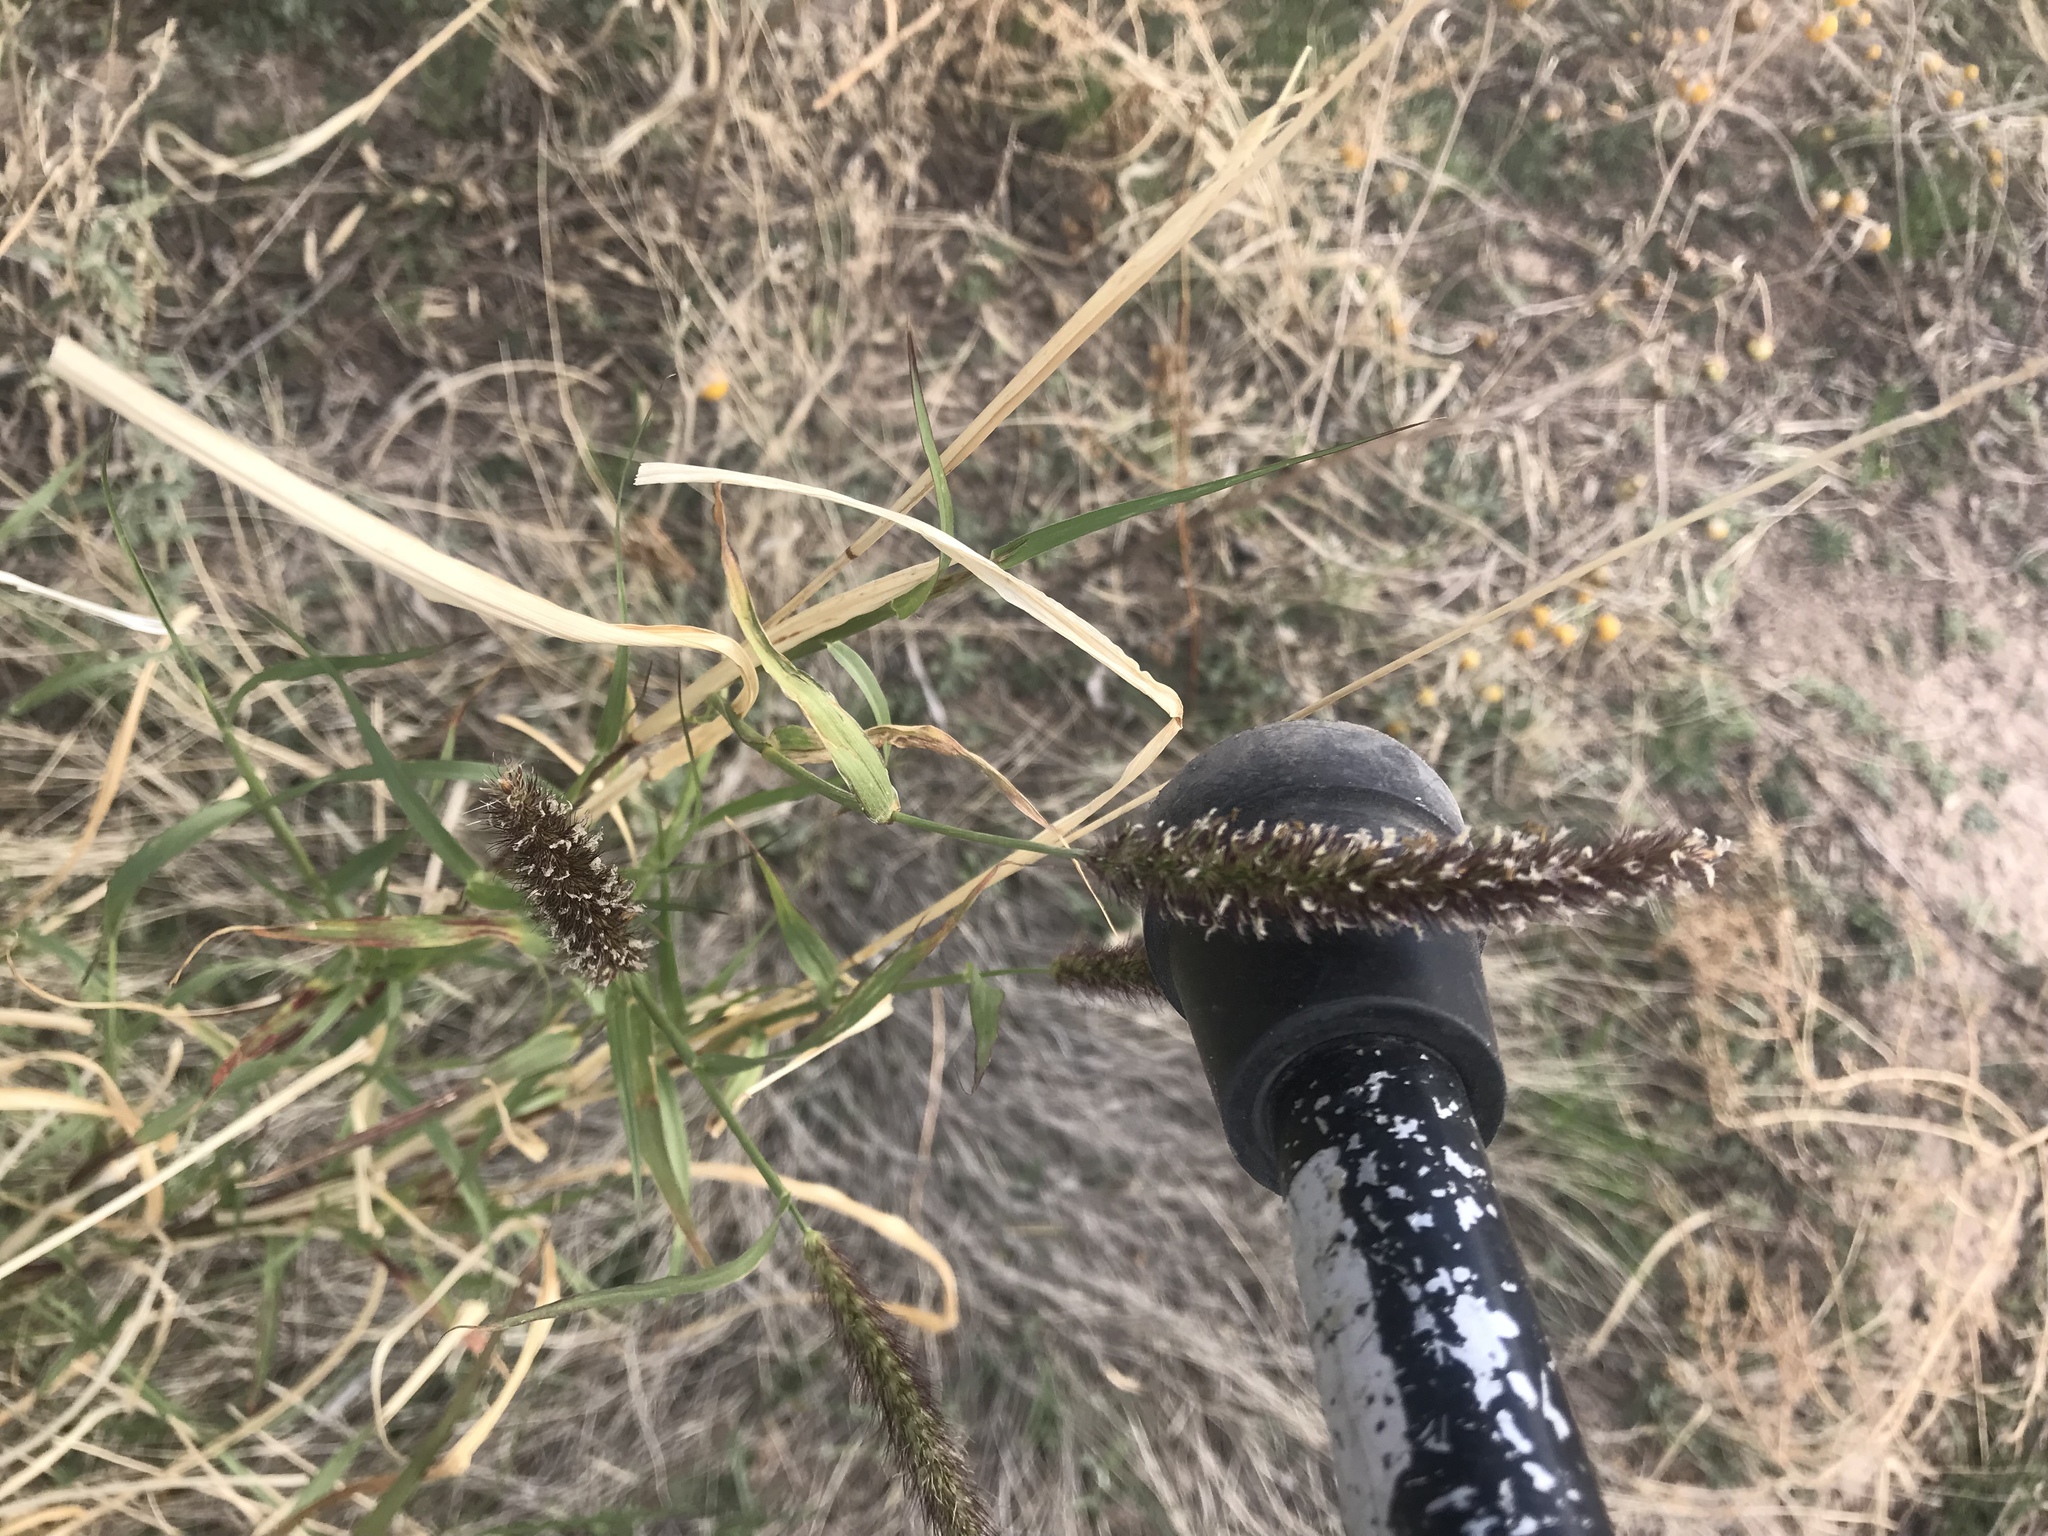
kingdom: Plantae
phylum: Tracheophyta
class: Liliopsida
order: Poales
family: Poaceae
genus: Cenchrus
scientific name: Cenchrus ciliaris
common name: Buffelgrass
